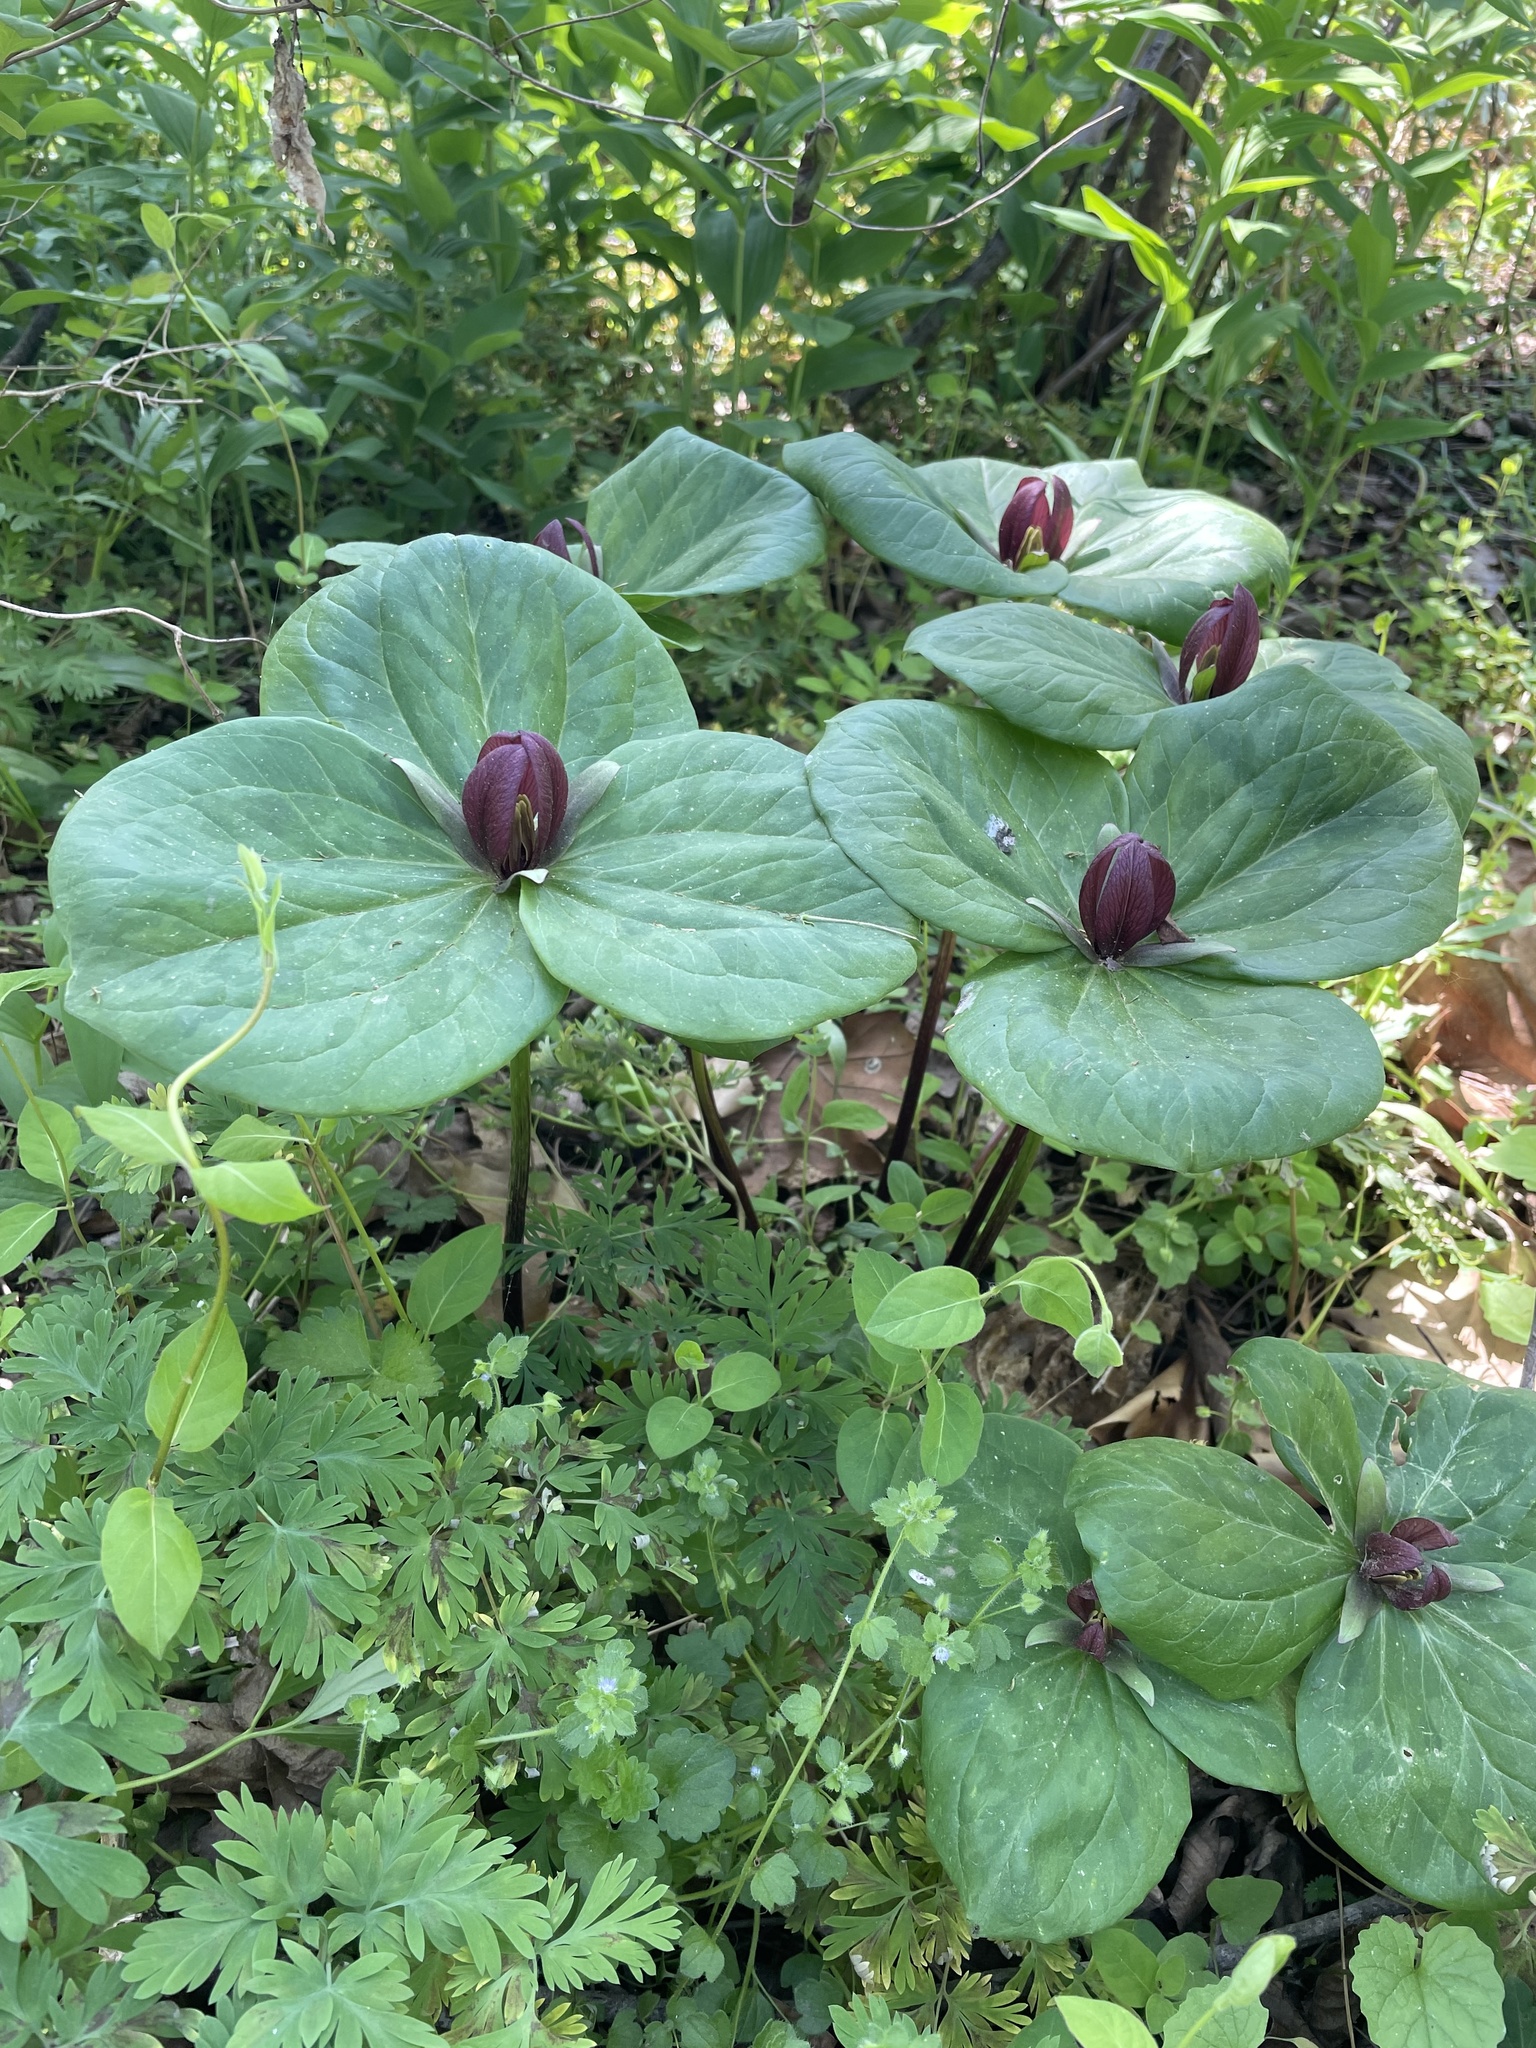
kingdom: Plantae
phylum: Tracheophyta
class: Liliopsida
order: Liliales
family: Melanthiaceae
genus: Trillium
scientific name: Trillium sessile
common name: Sessile trillium
